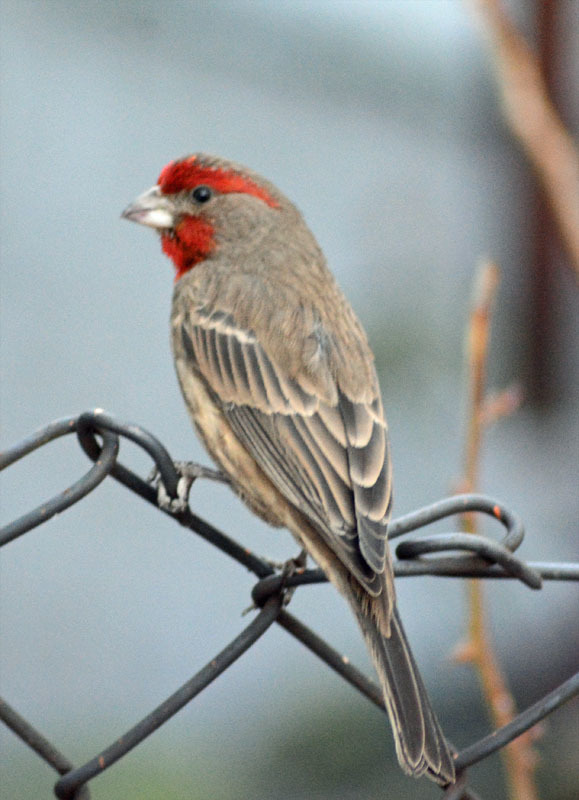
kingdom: Animalia
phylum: Chordata
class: Aves
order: Passeriformes
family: Fringillidae
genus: Haemorhous
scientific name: Haemorhous mexicanus
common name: House finch
